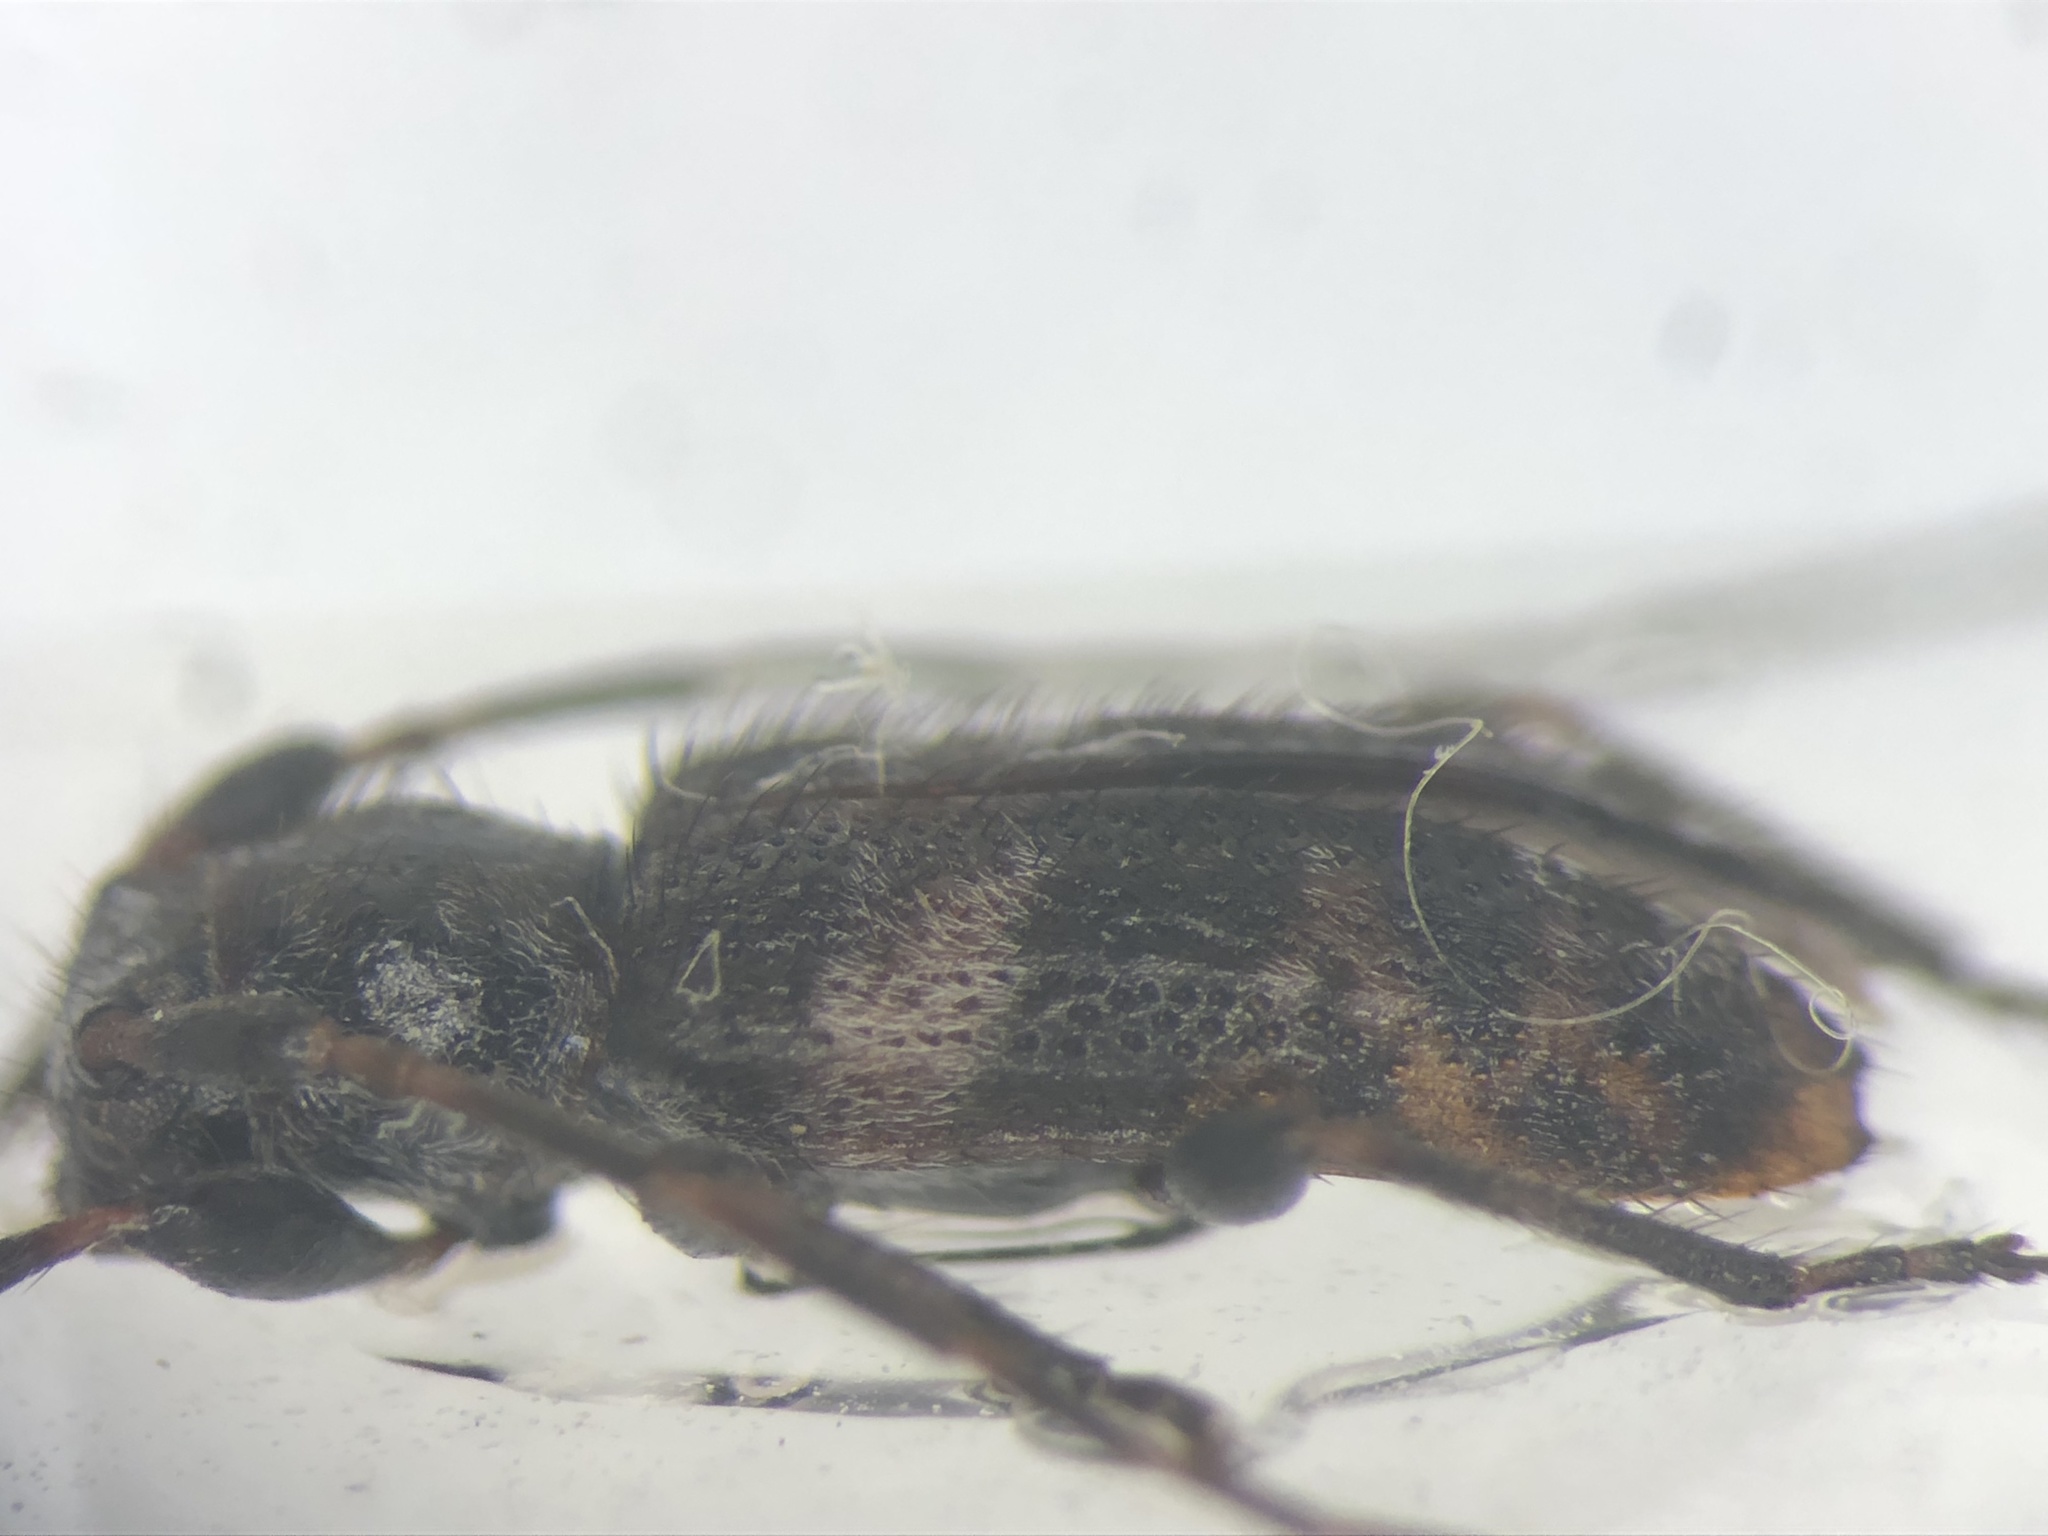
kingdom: Animalia
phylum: Arthropoda
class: Insecta
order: Coleoptera
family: Cerambycidae
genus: Pogonocherus
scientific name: Pogonocherus mixtus
